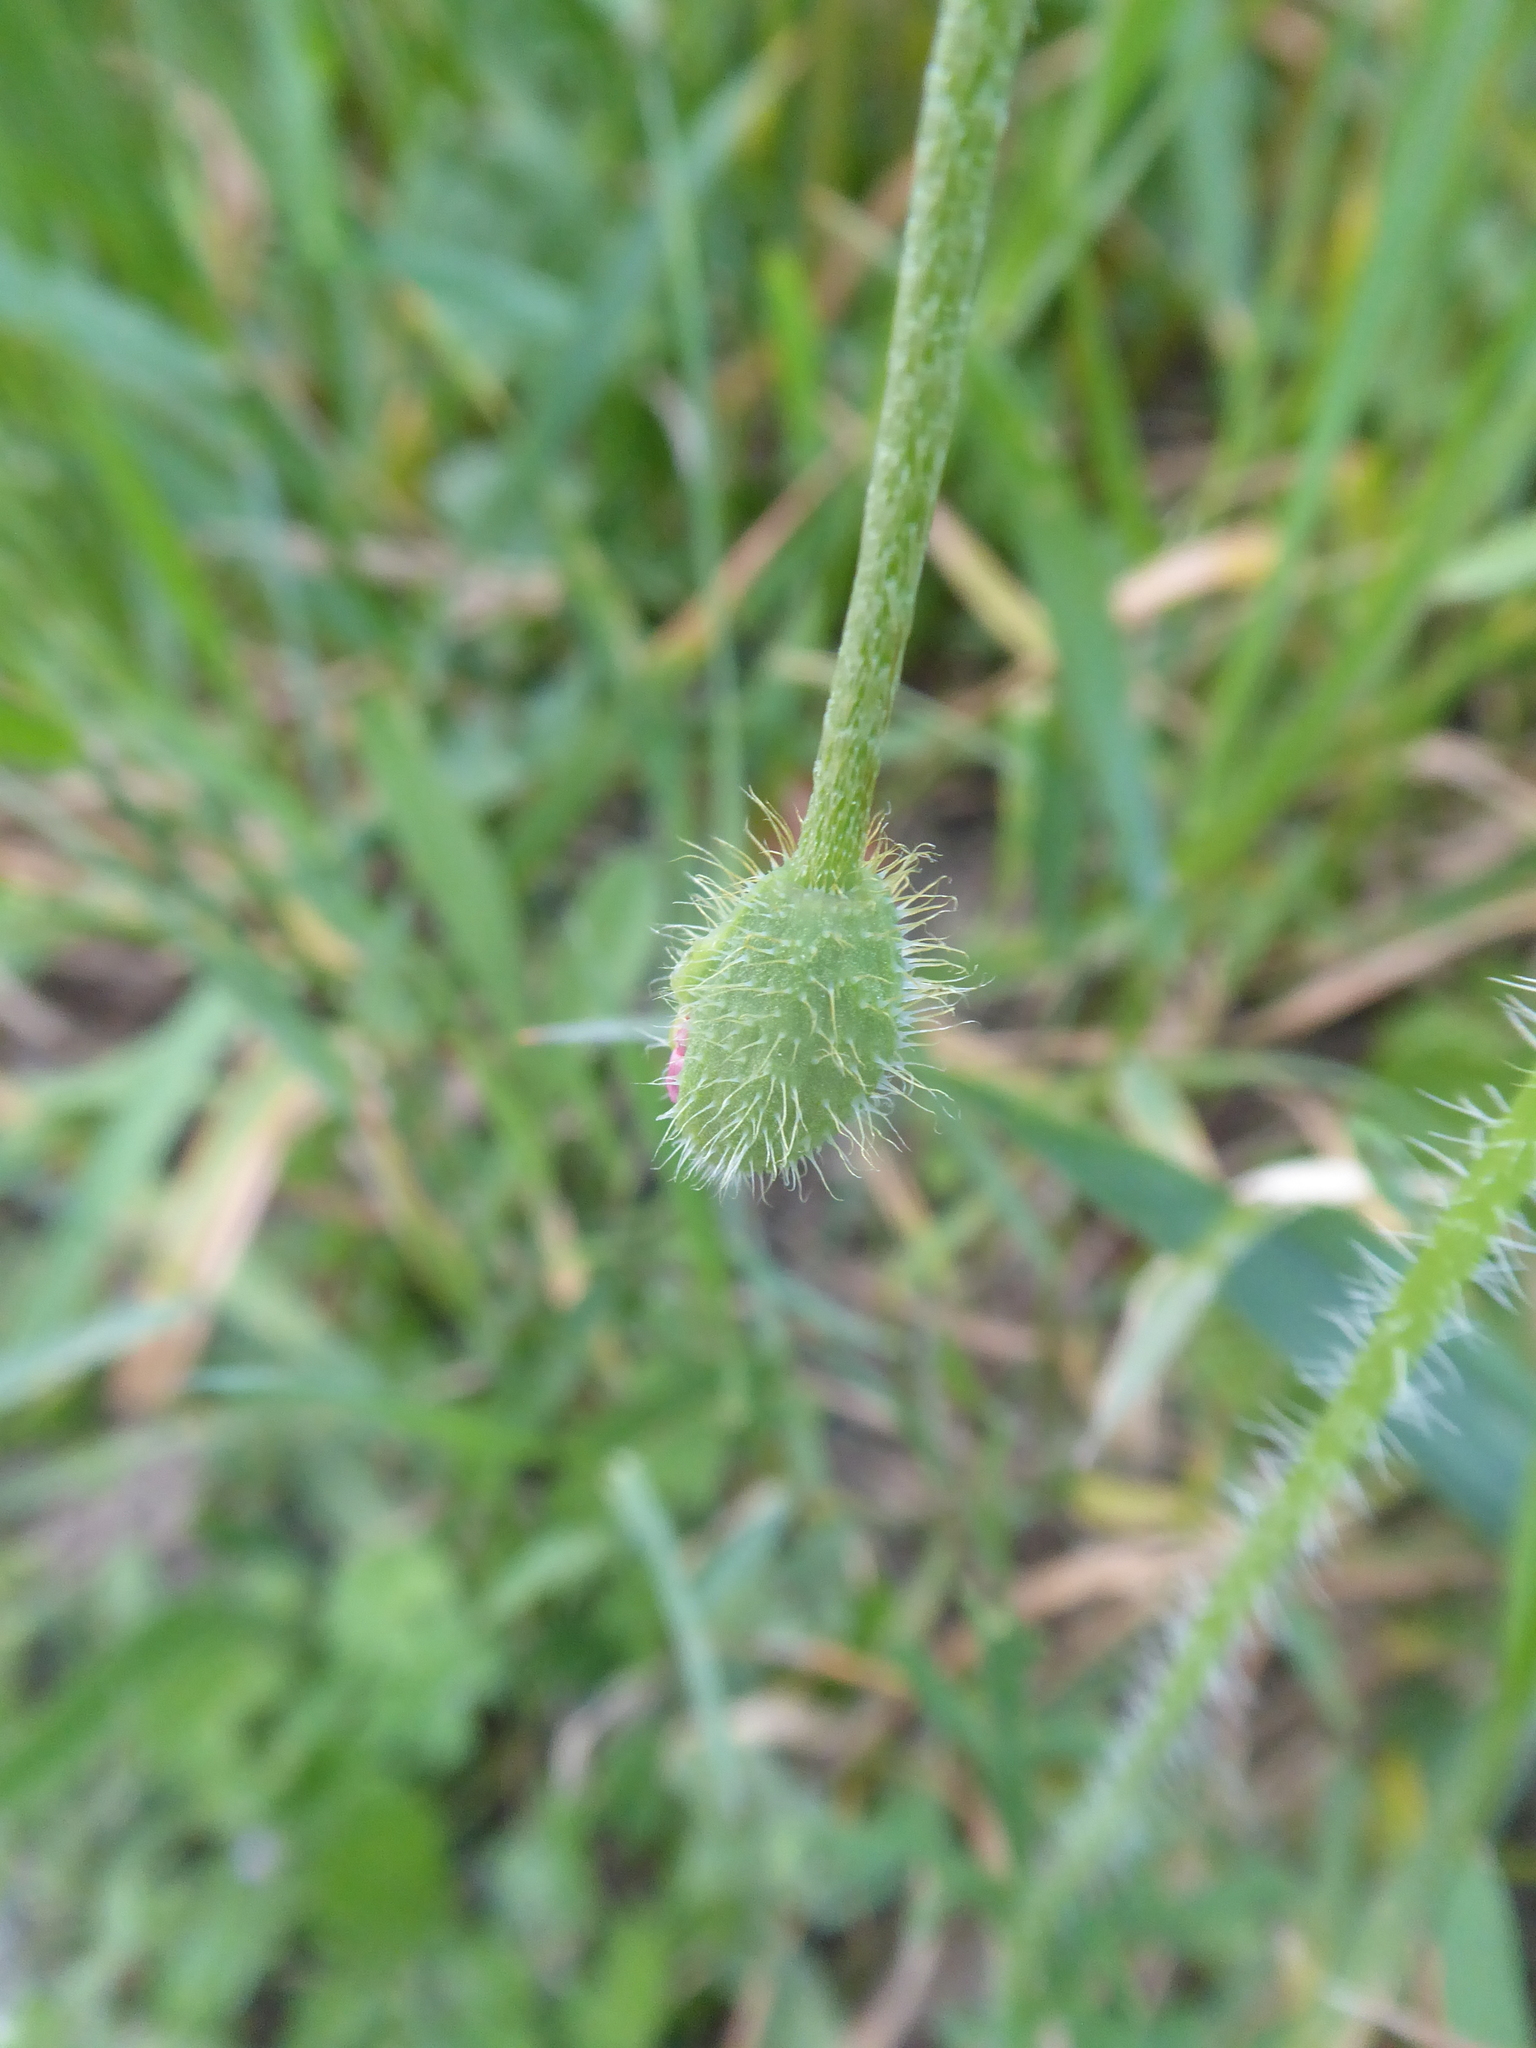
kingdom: Plantae
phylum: Tracheophyta
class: Magnoliopsida
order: Ranunculales
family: Papaveraceae
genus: Papaver
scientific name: Papaver dubium
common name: Long-headed poppy
